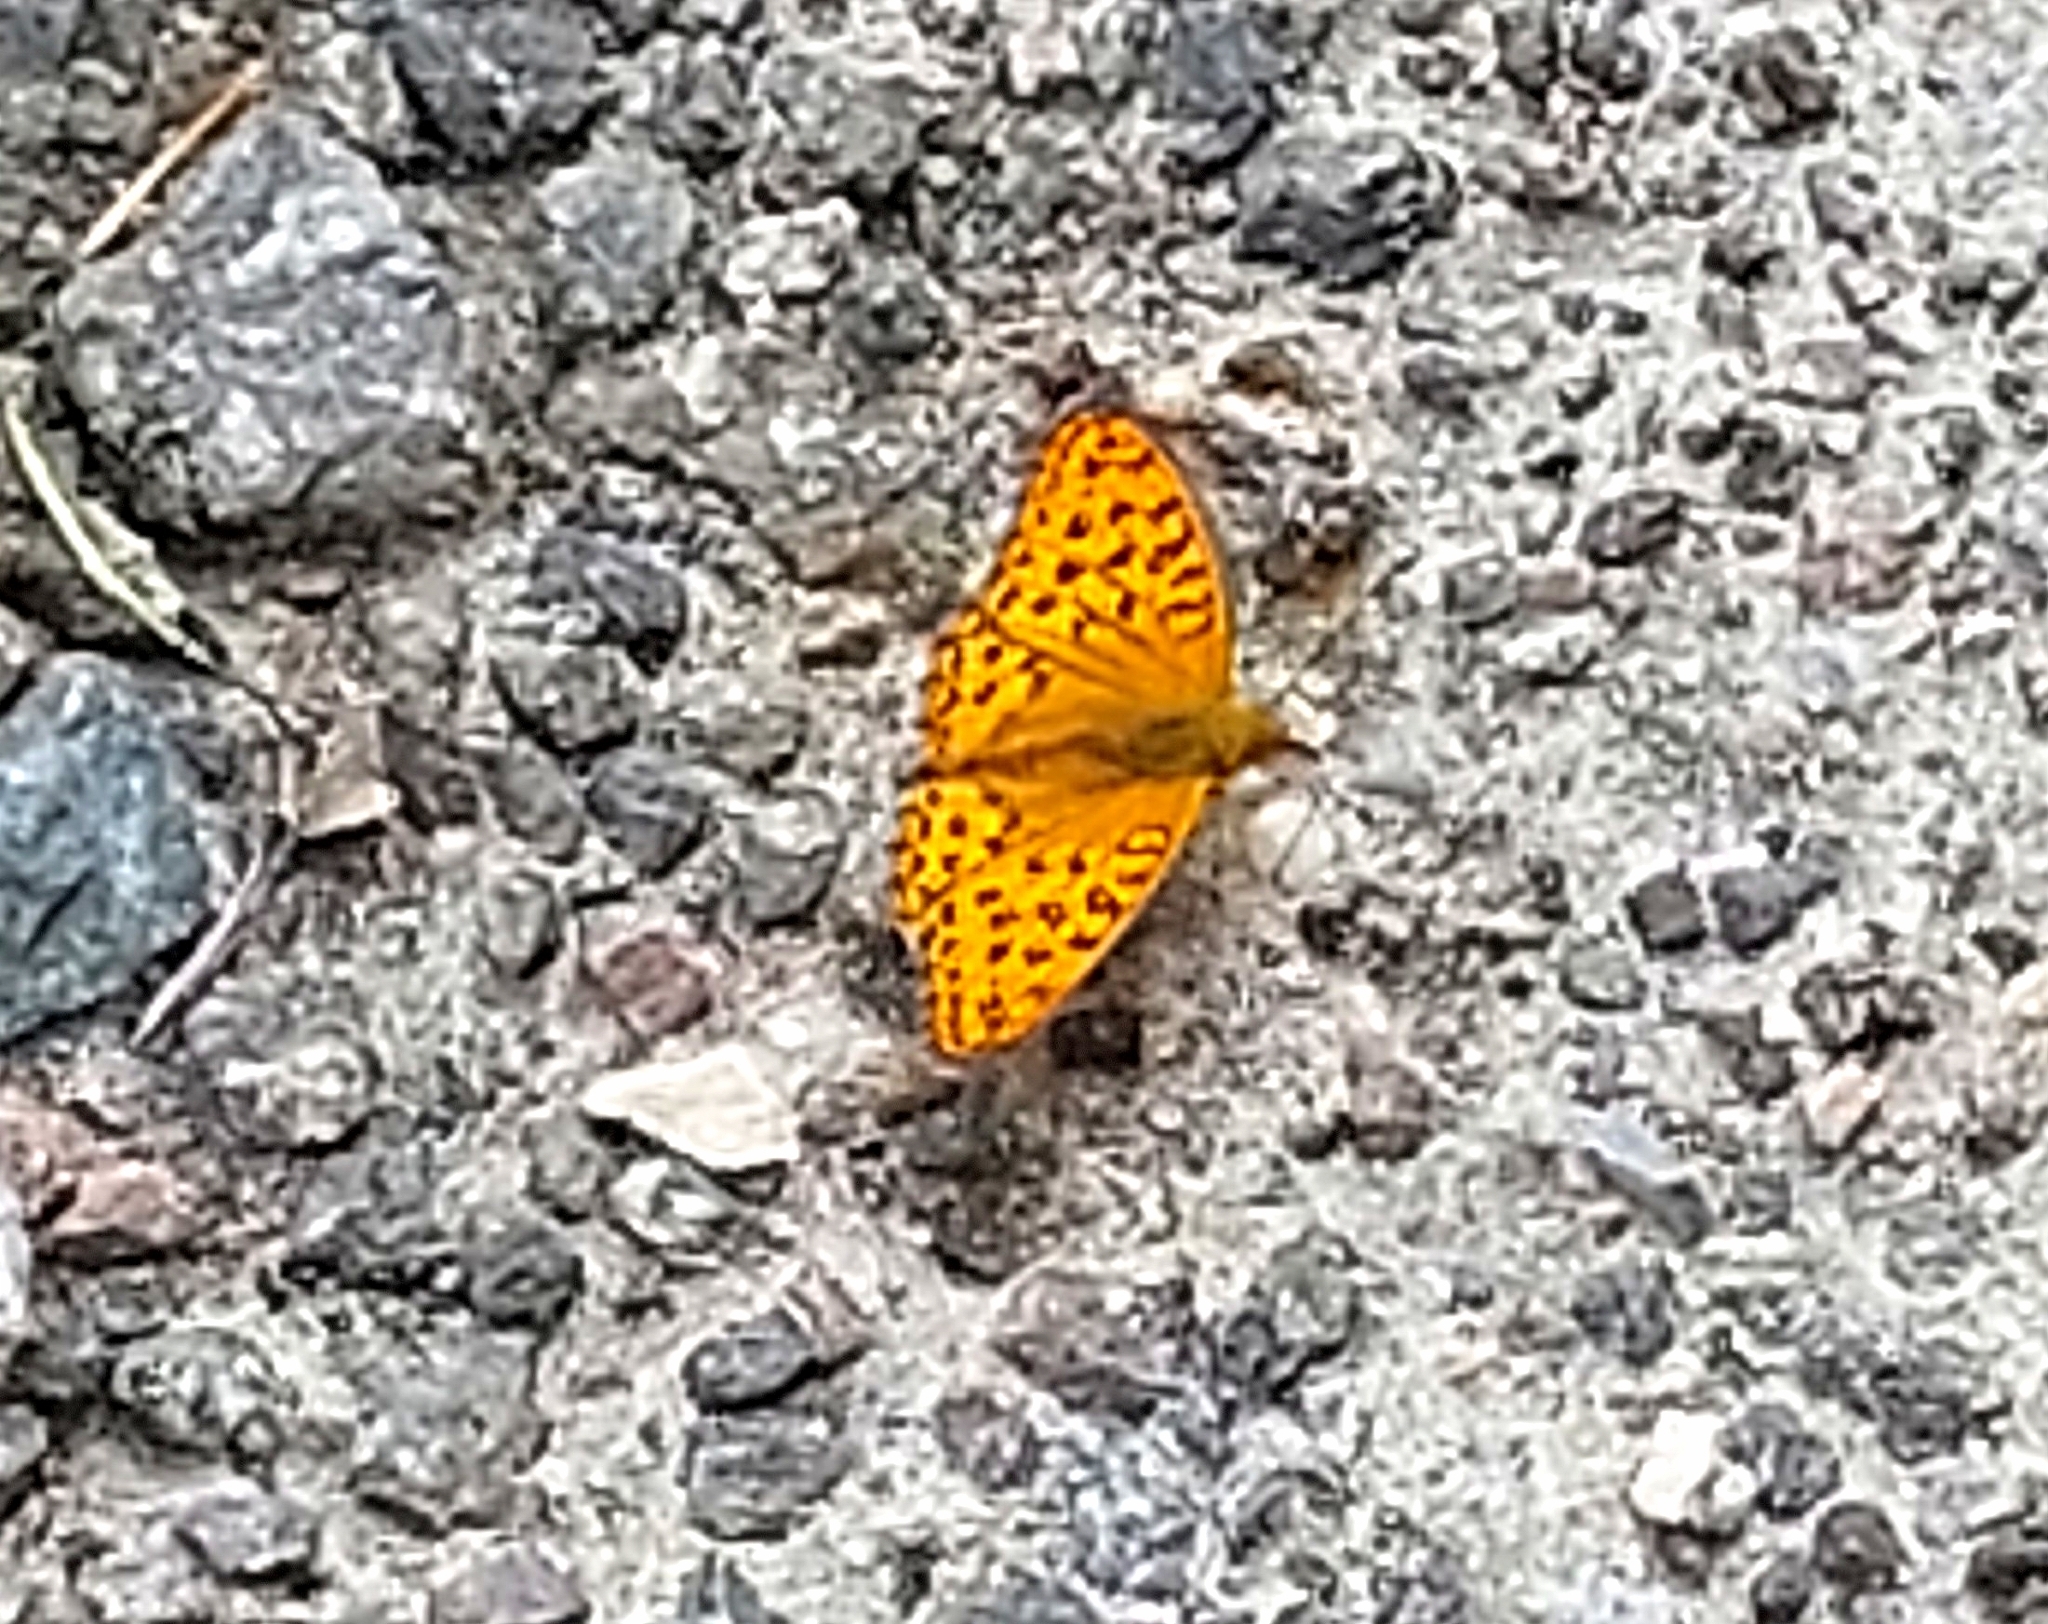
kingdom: Animalia
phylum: Arthropoda
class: Insecta
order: Lepidoptera
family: Nymphalidae
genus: Fabriciana
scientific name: Fabriciana adippe
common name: High brown fritillary
